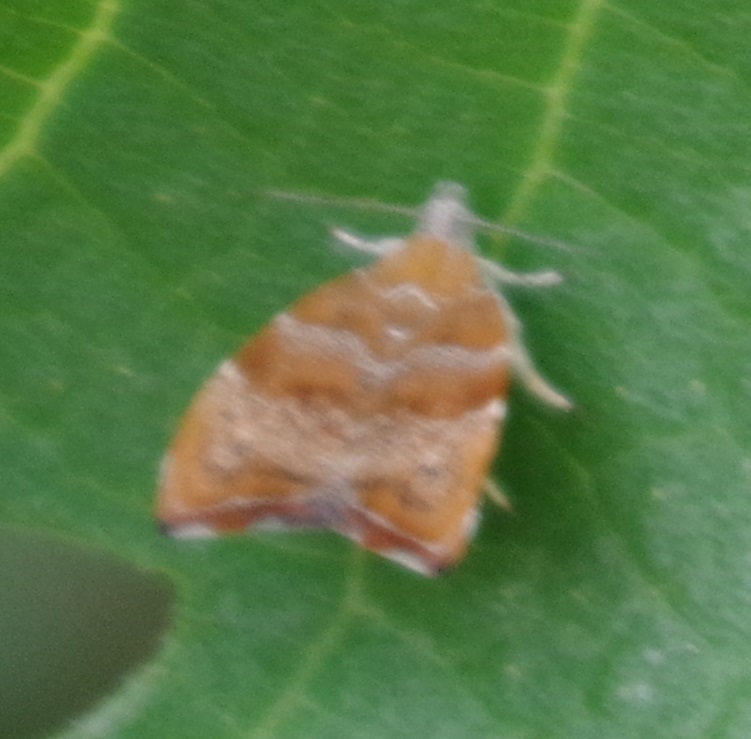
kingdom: Animalia
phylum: Arthropoda
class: Insecta
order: Lepidoptera
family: Choreutidae
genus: Anthophila
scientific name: Anthophila nemorana
